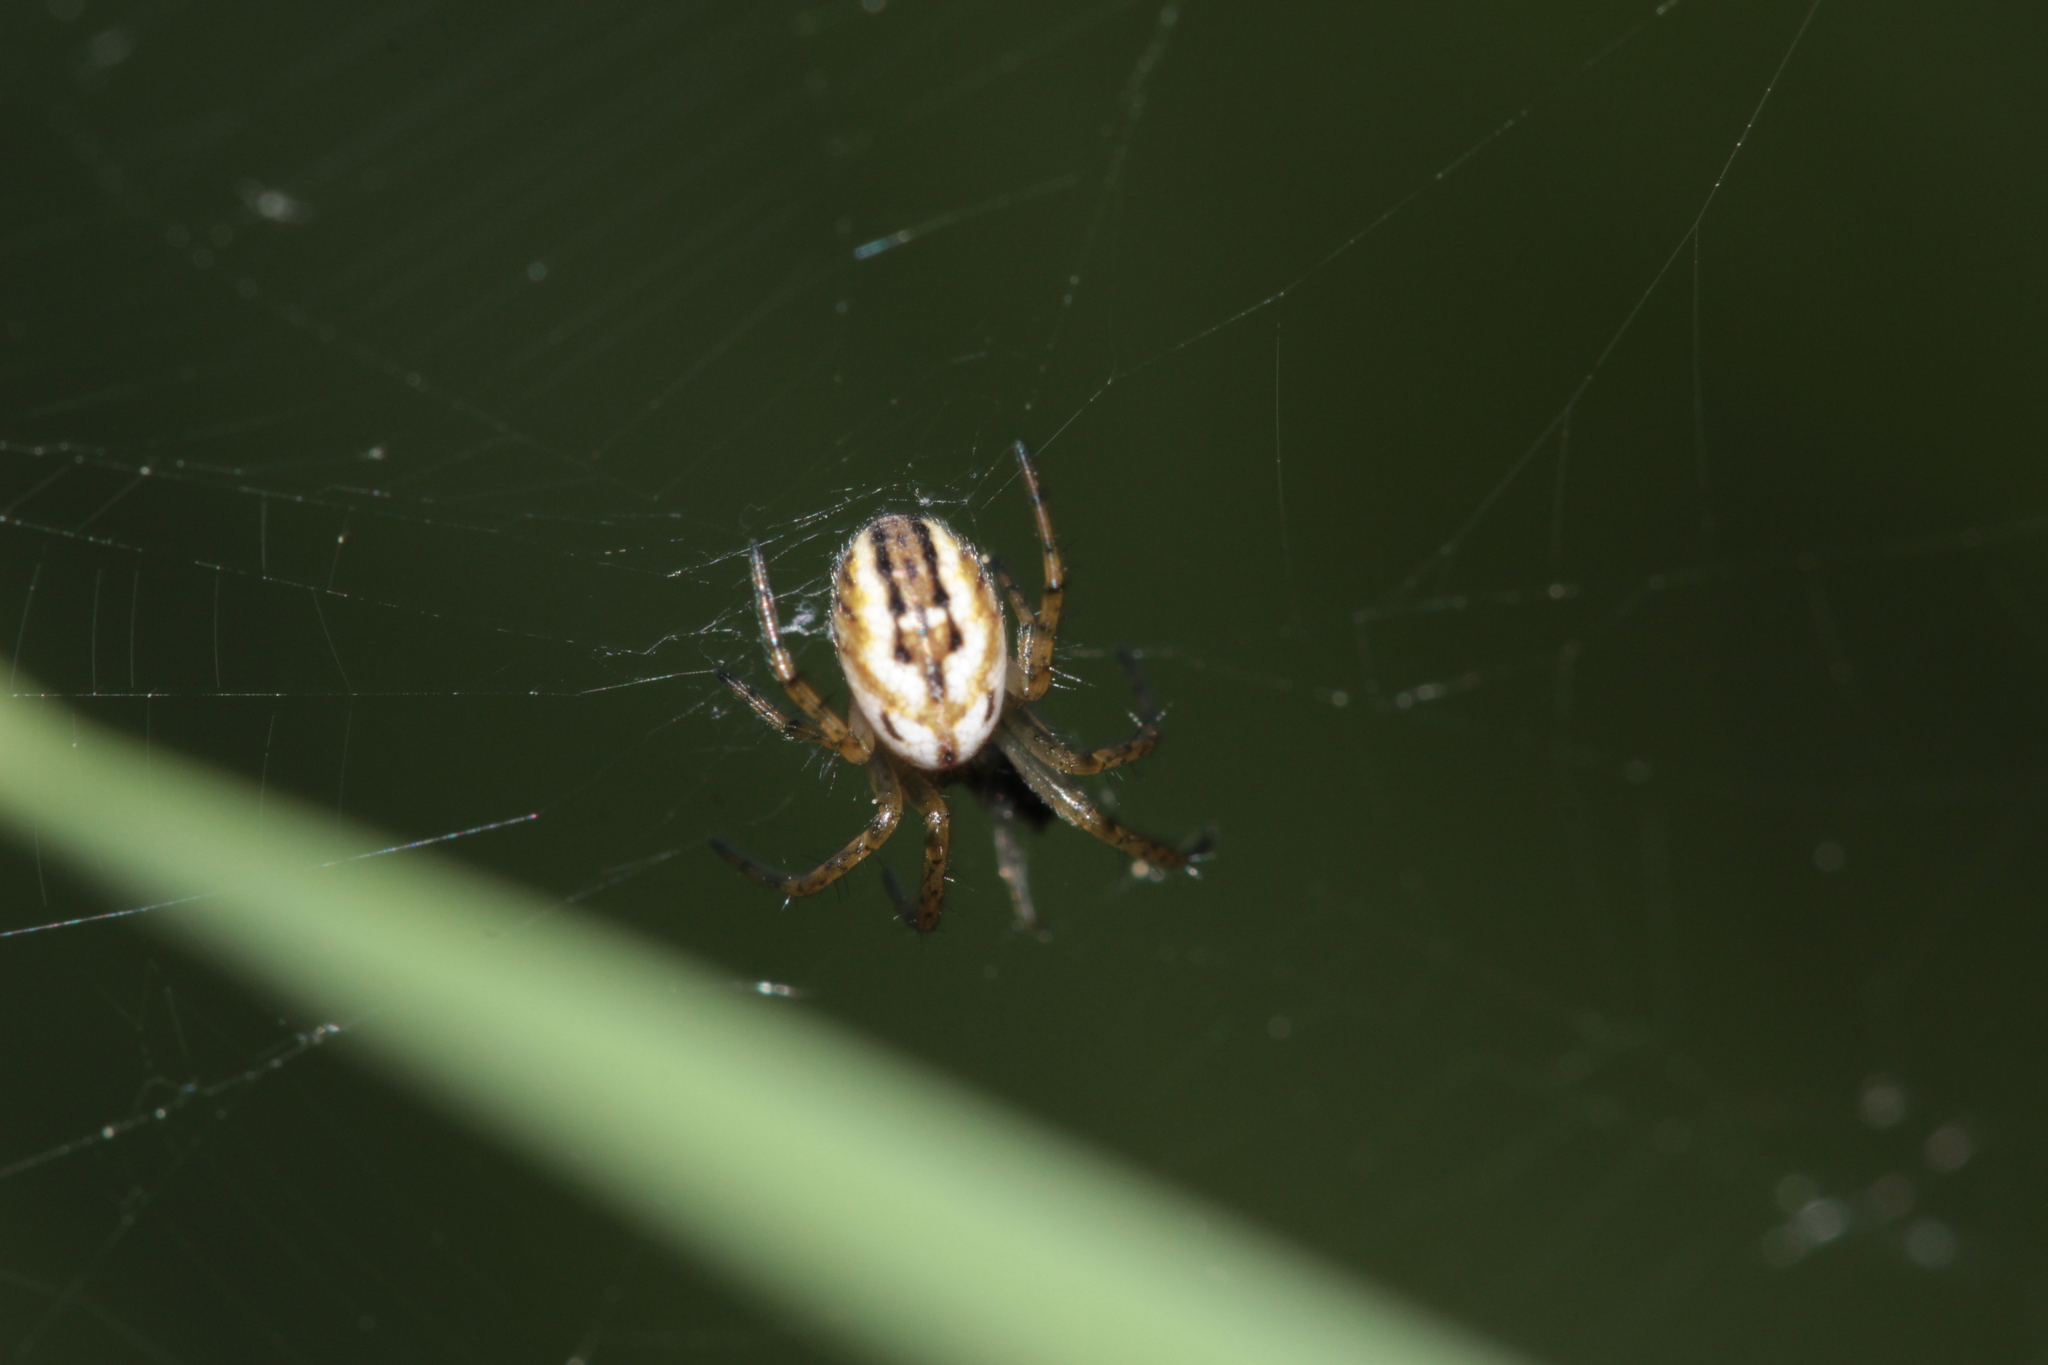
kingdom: Animalia
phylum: Arthropoda
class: Arachnida
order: Araneae
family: Araneidae
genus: Mangora
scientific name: Mangora acalypha
